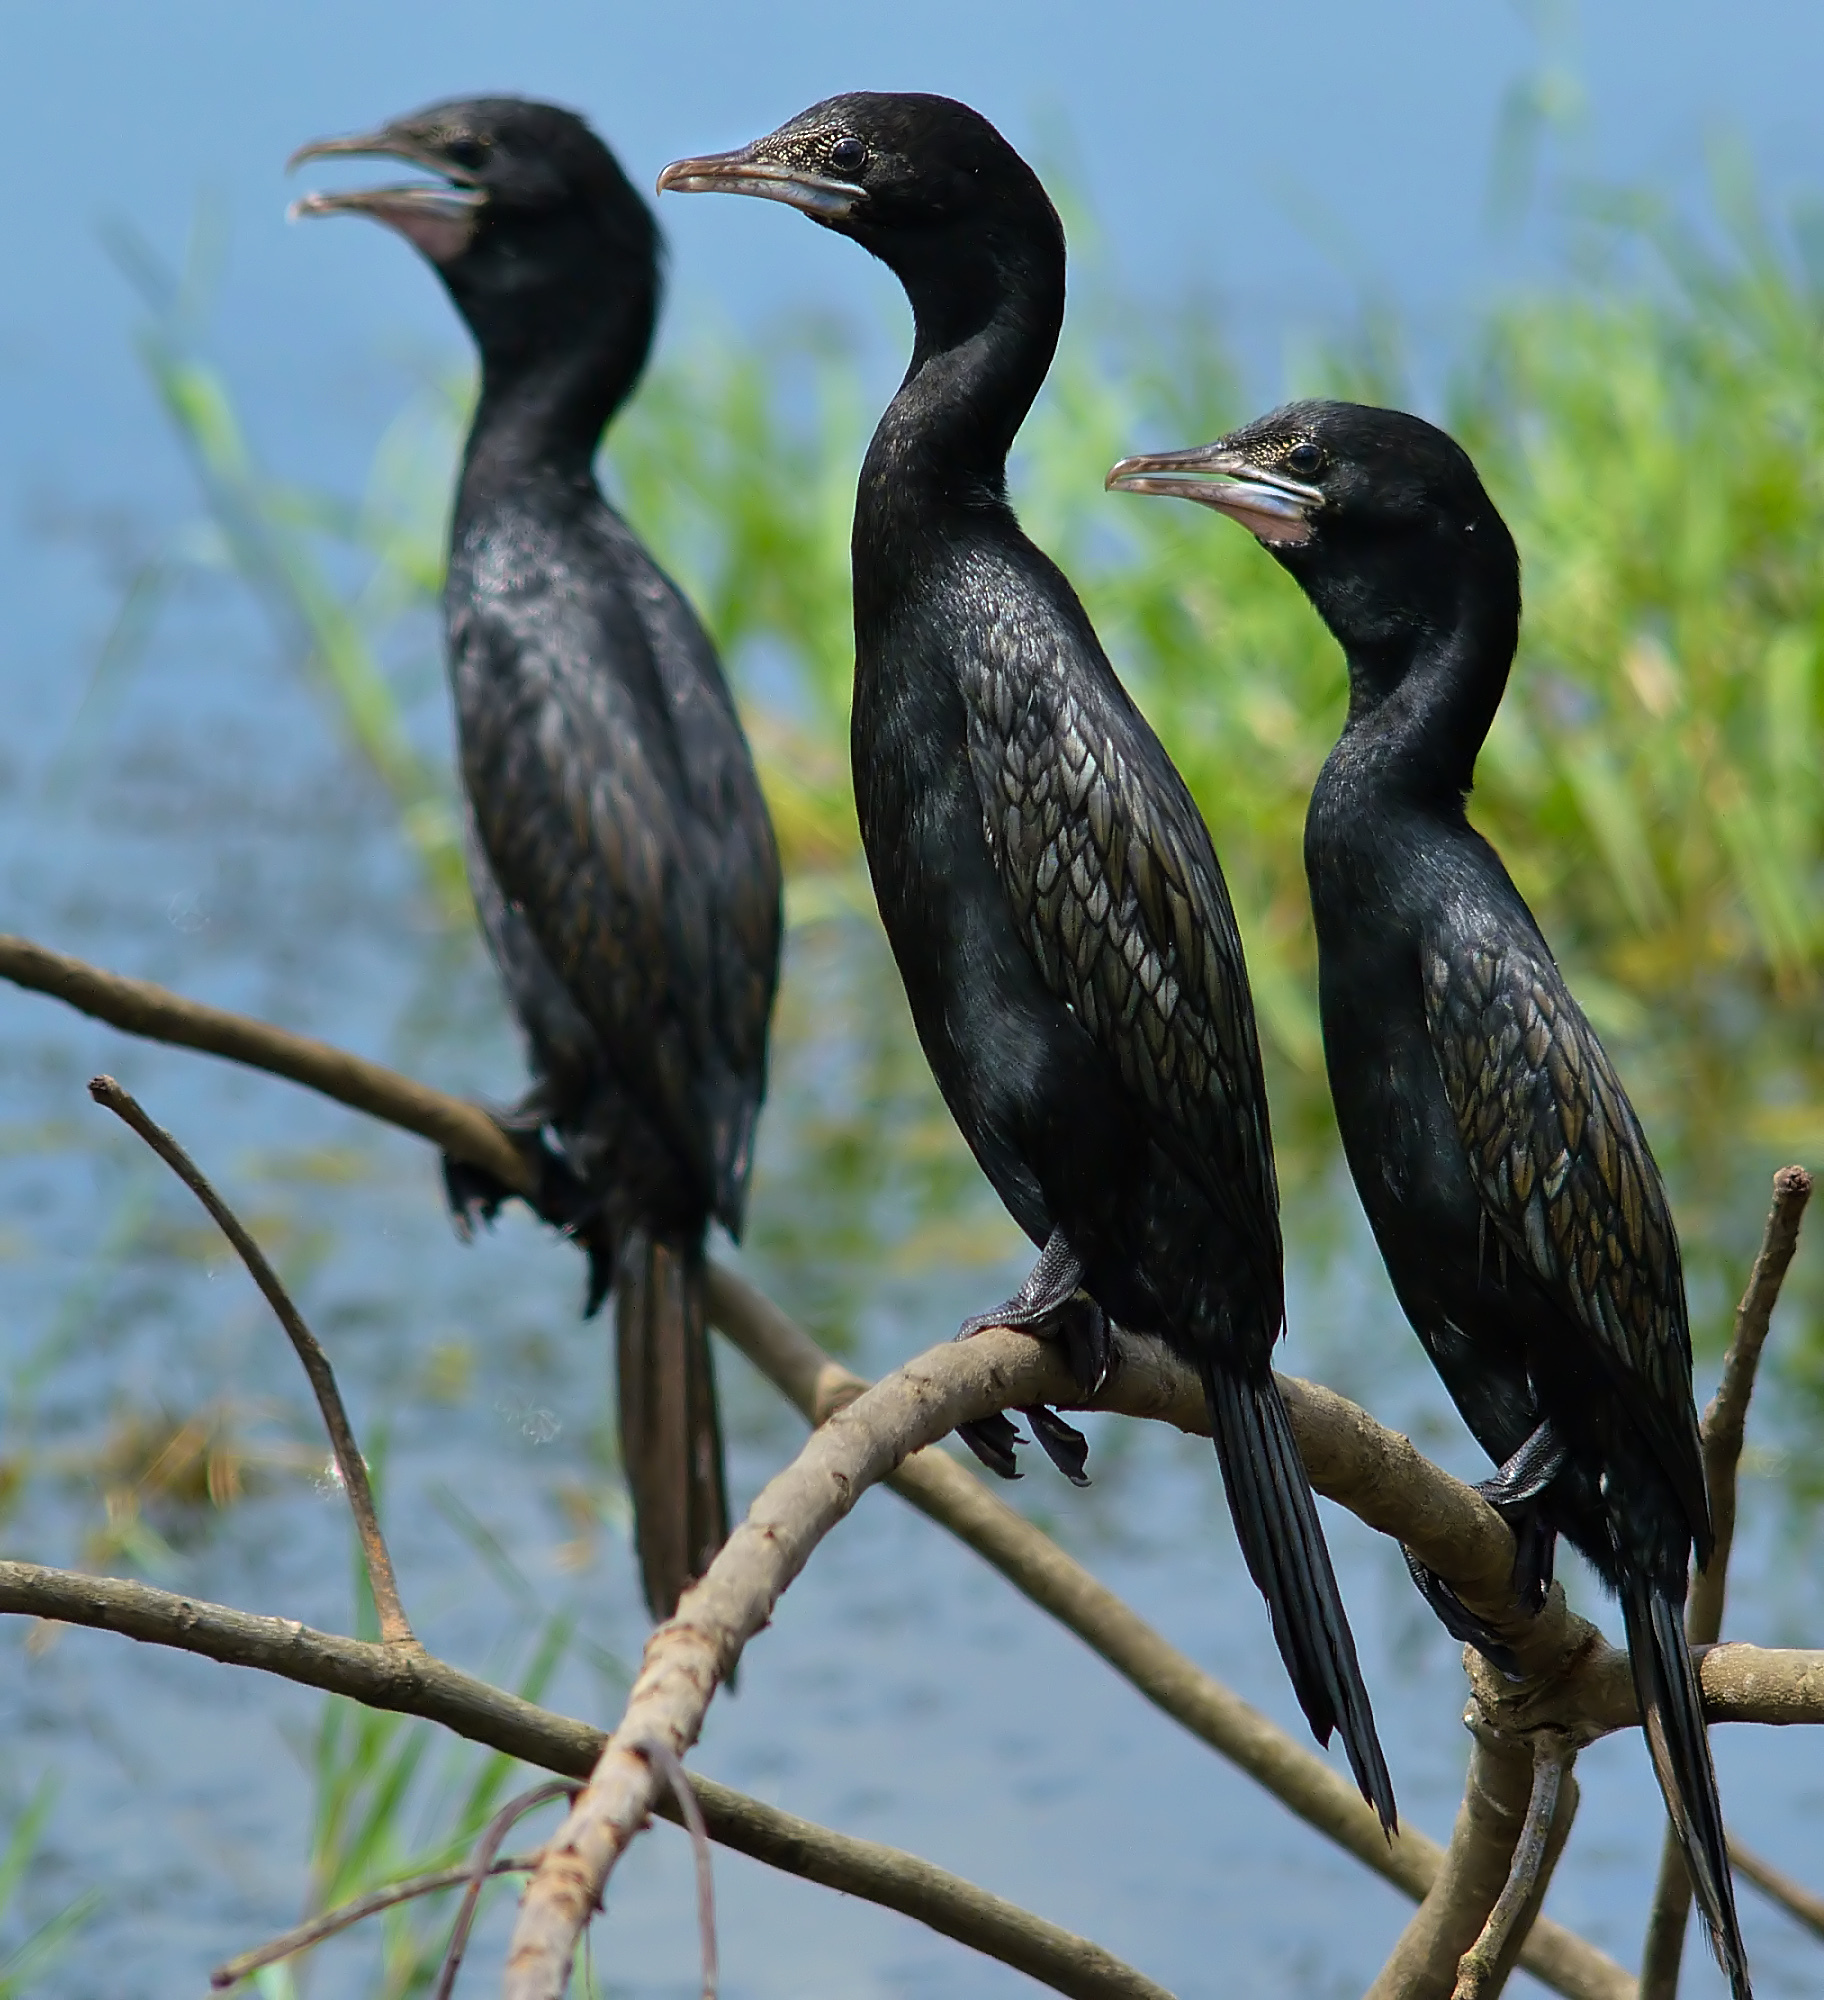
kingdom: Animalia
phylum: Chordata
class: Aves
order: Suliformes
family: Phalacrocoracidae
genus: Microcarbo
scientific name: Microcarbo niger
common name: Little cormorant
